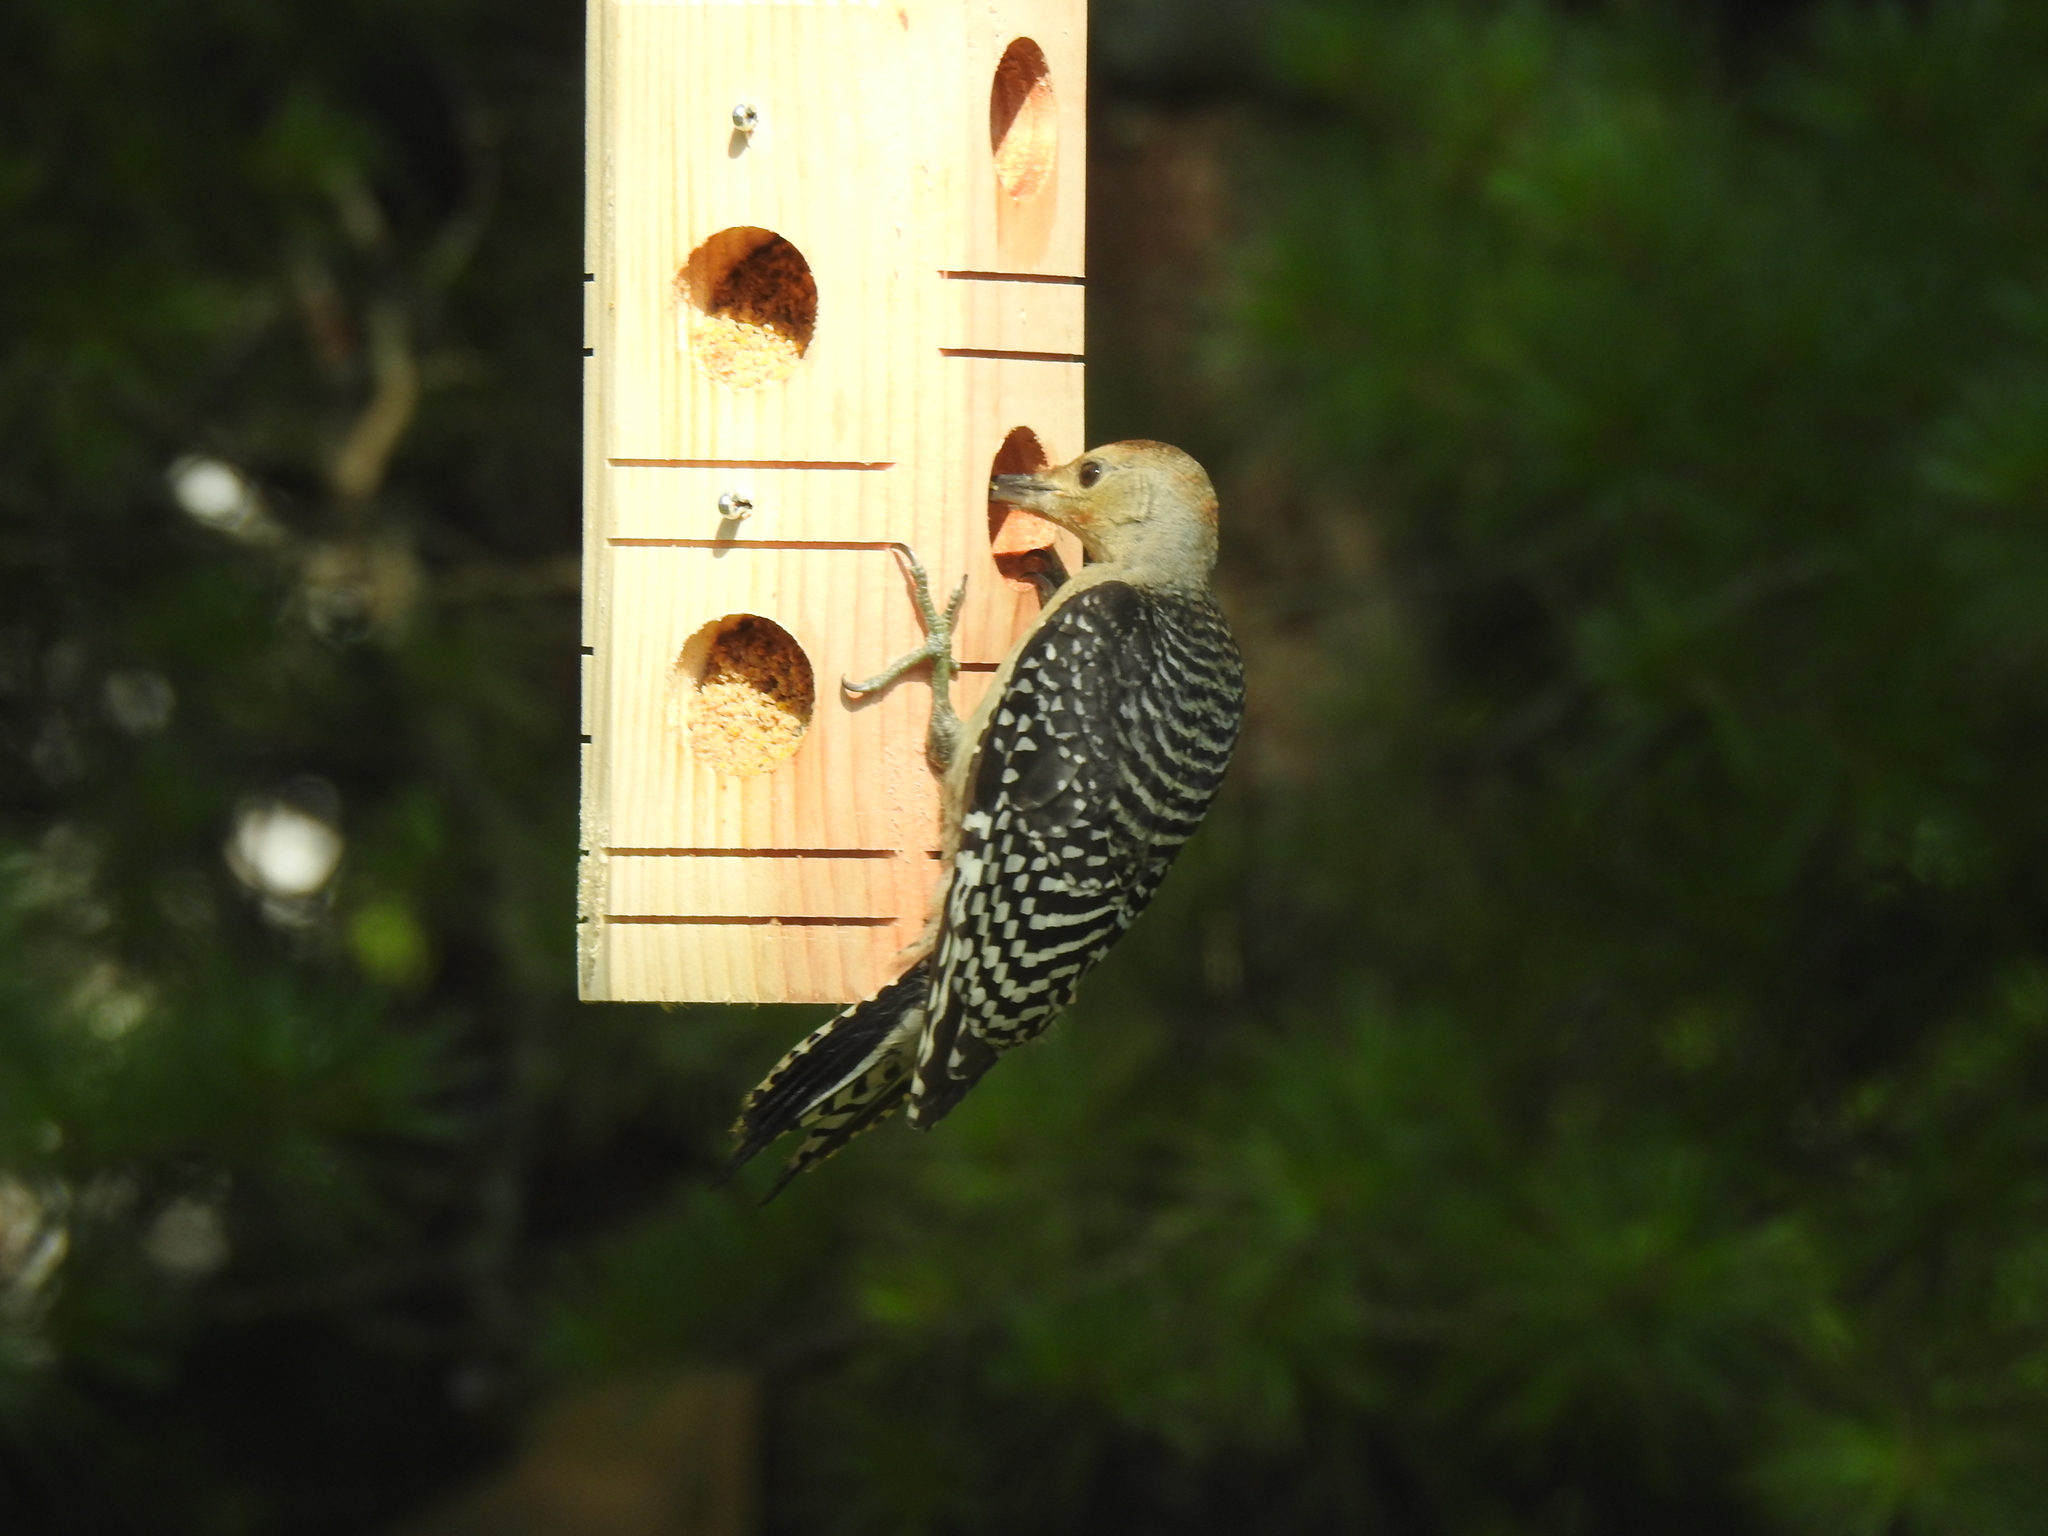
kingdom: Animalia
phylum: Chordata
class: Aves
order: Piciformes
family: Picidae
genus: Melanerpes
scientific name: Melanerpes carolinus
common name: Red-bellied woodpecker
